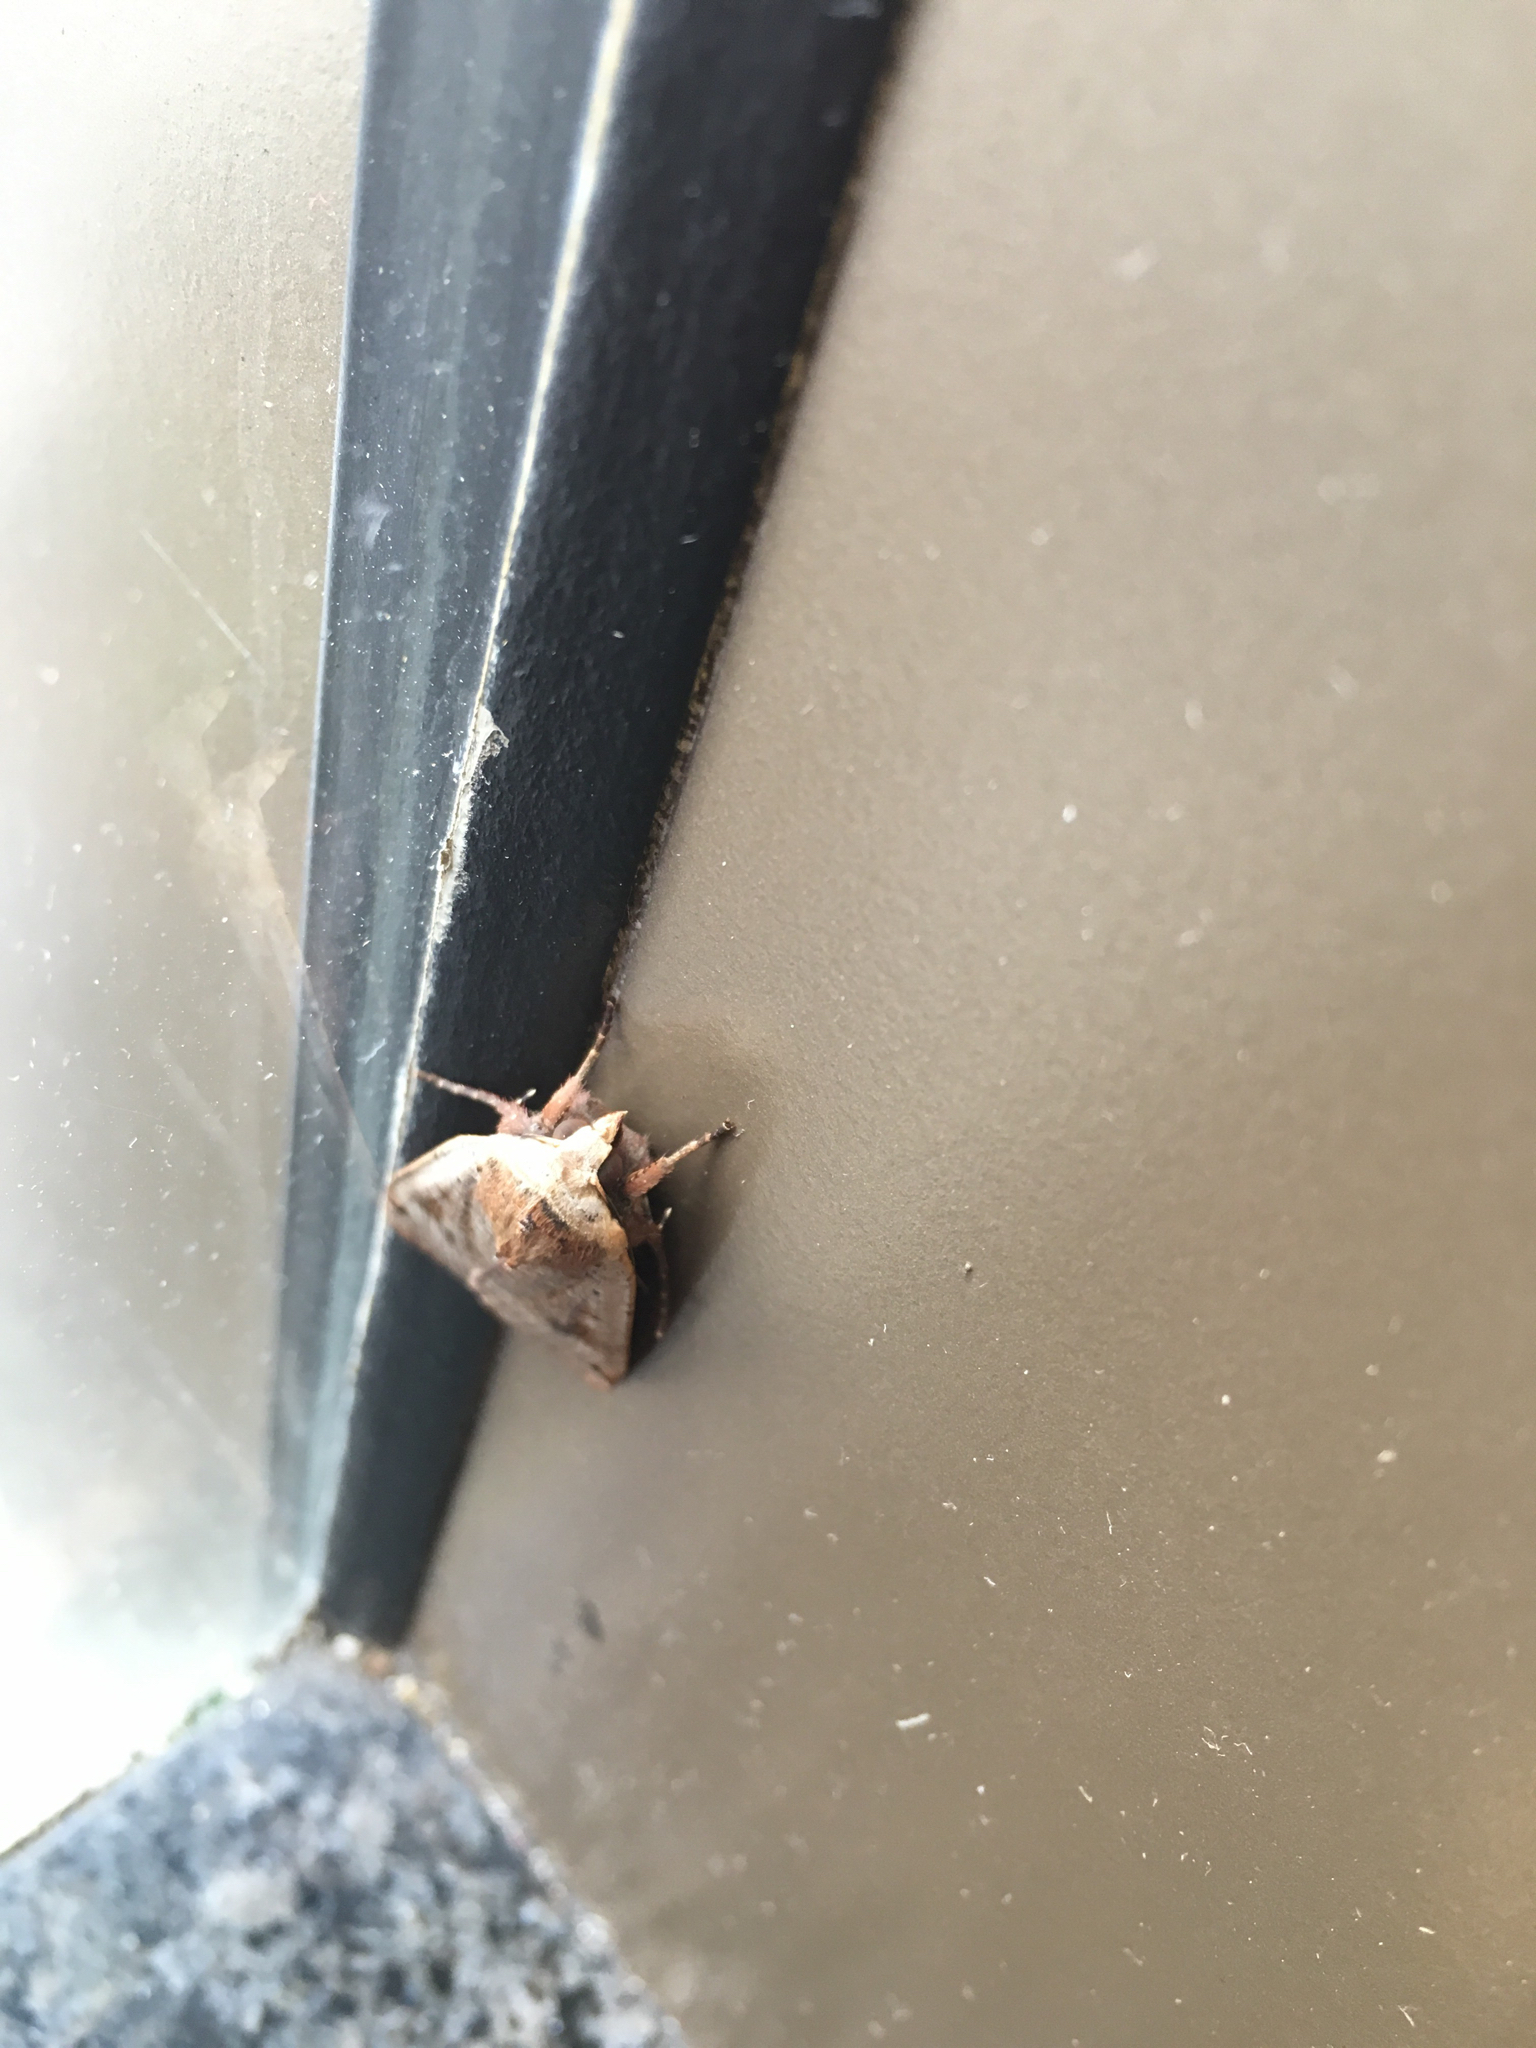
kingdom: Animalia
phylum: Arthropoda
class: Insecta
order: Lepidoptera
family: Noctuidae
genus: Noctua
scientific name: Noctua pronuba
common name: Large yellow underwing
